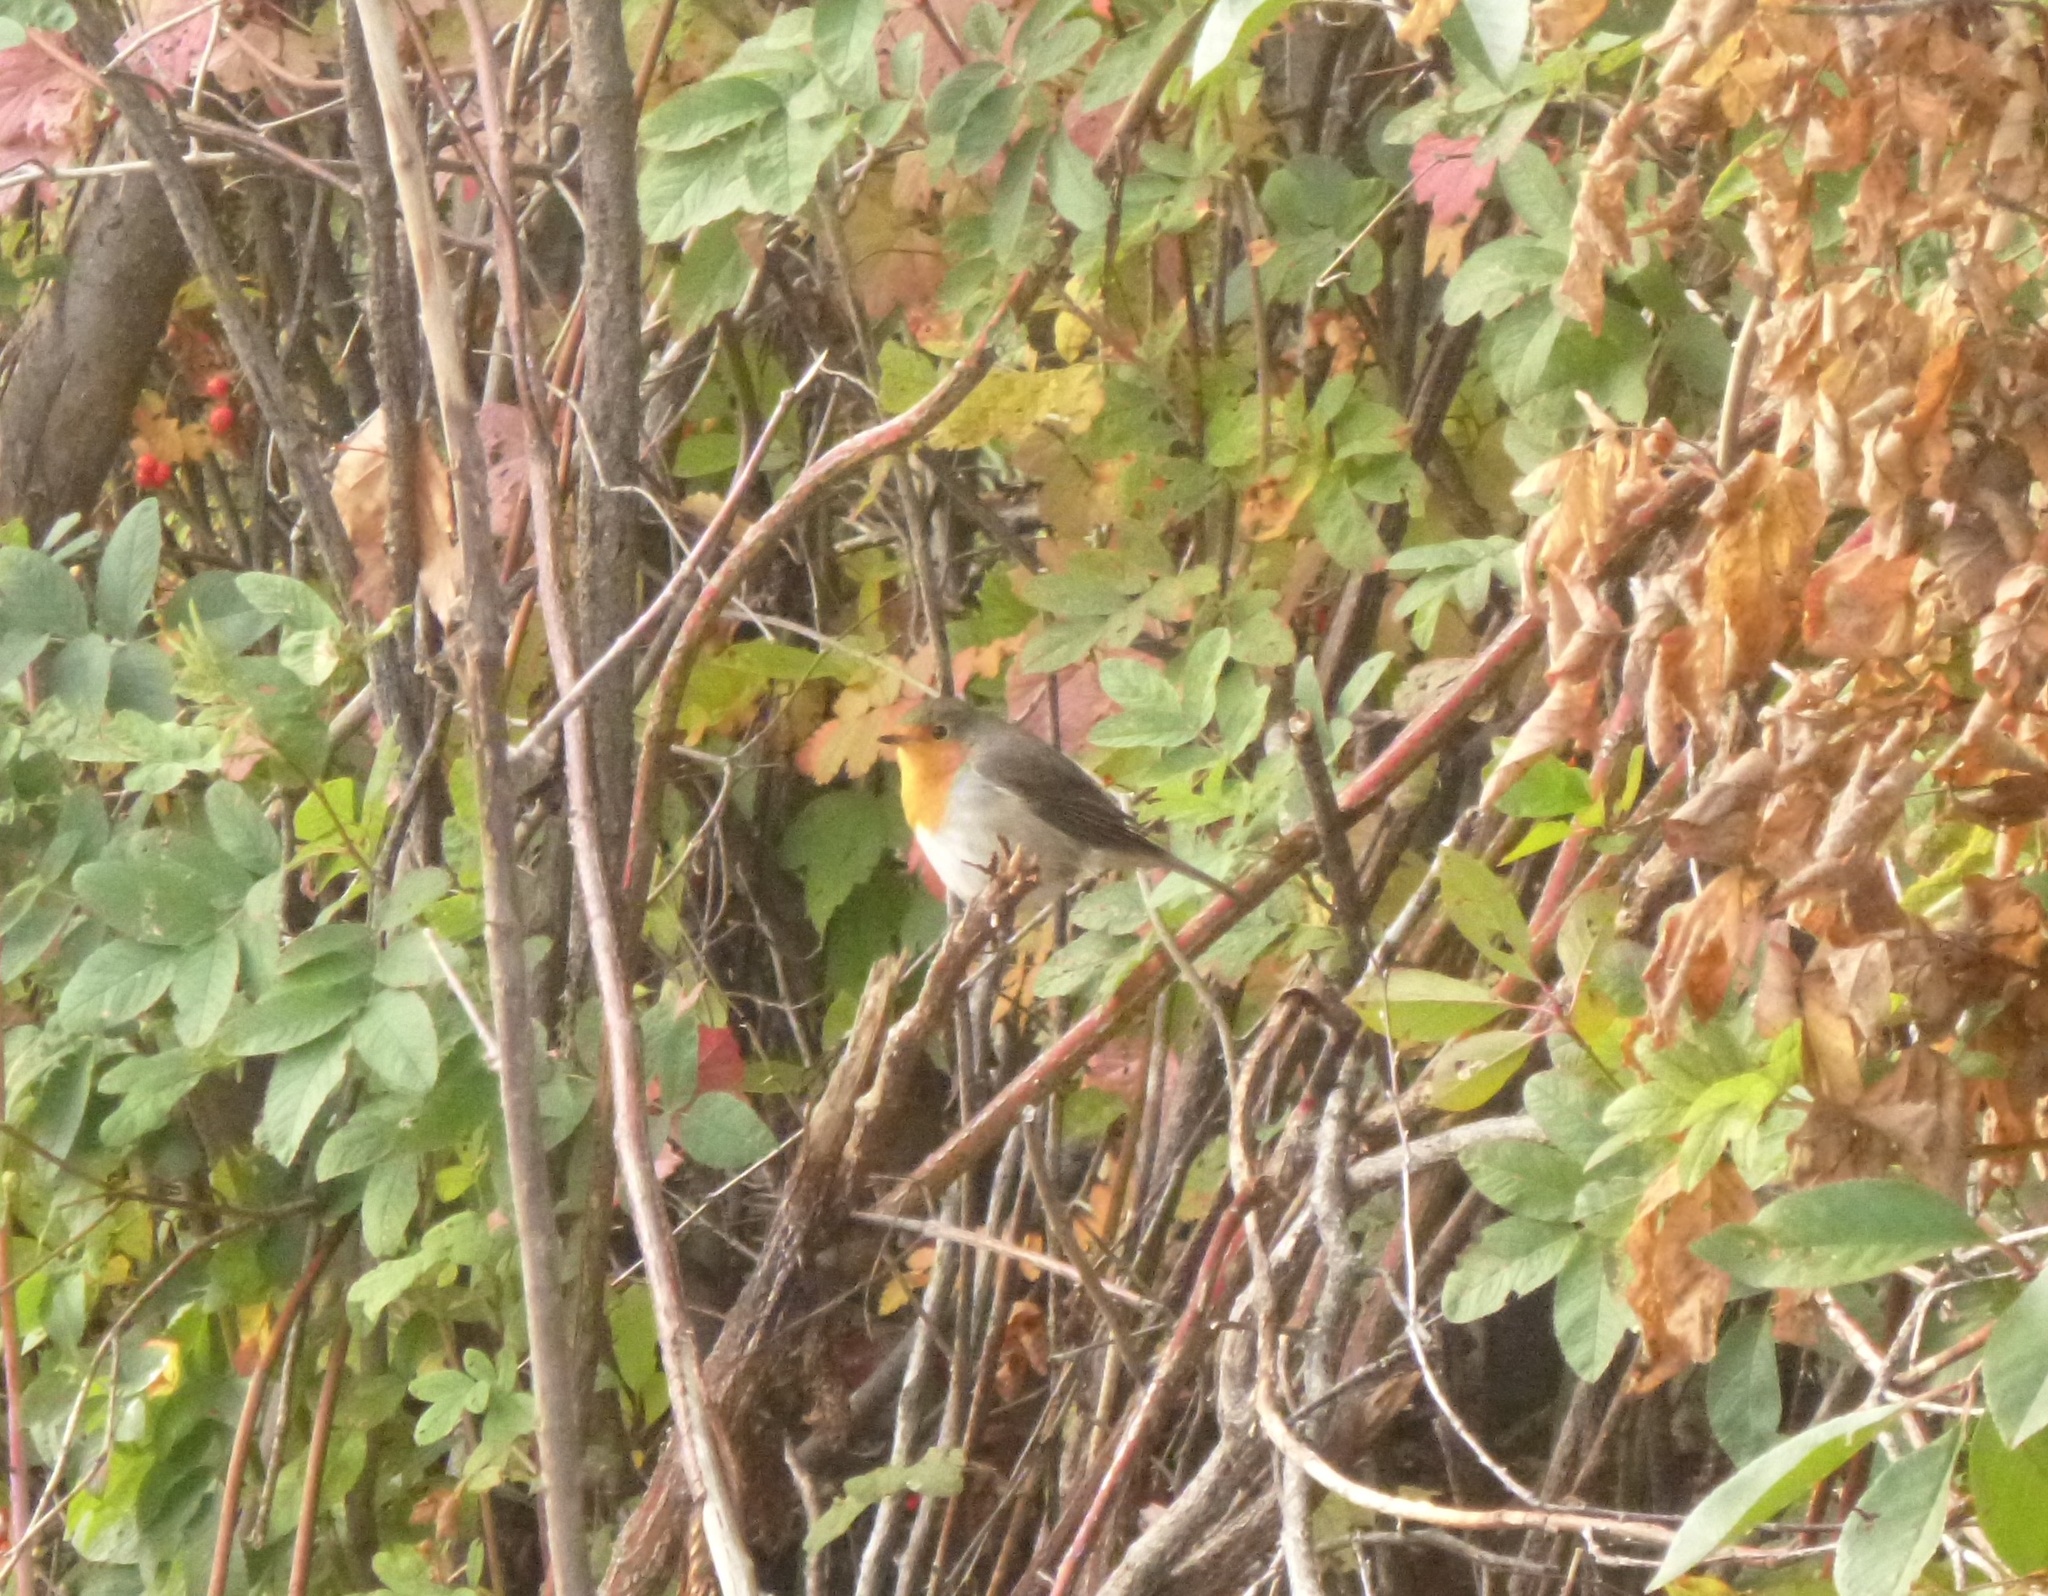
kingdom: Animalia
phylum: Chordata
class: Aves
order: Passeriformes
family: Muscicapidae
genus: Erithacus
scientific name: Erithacus rubecula
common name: European robin
